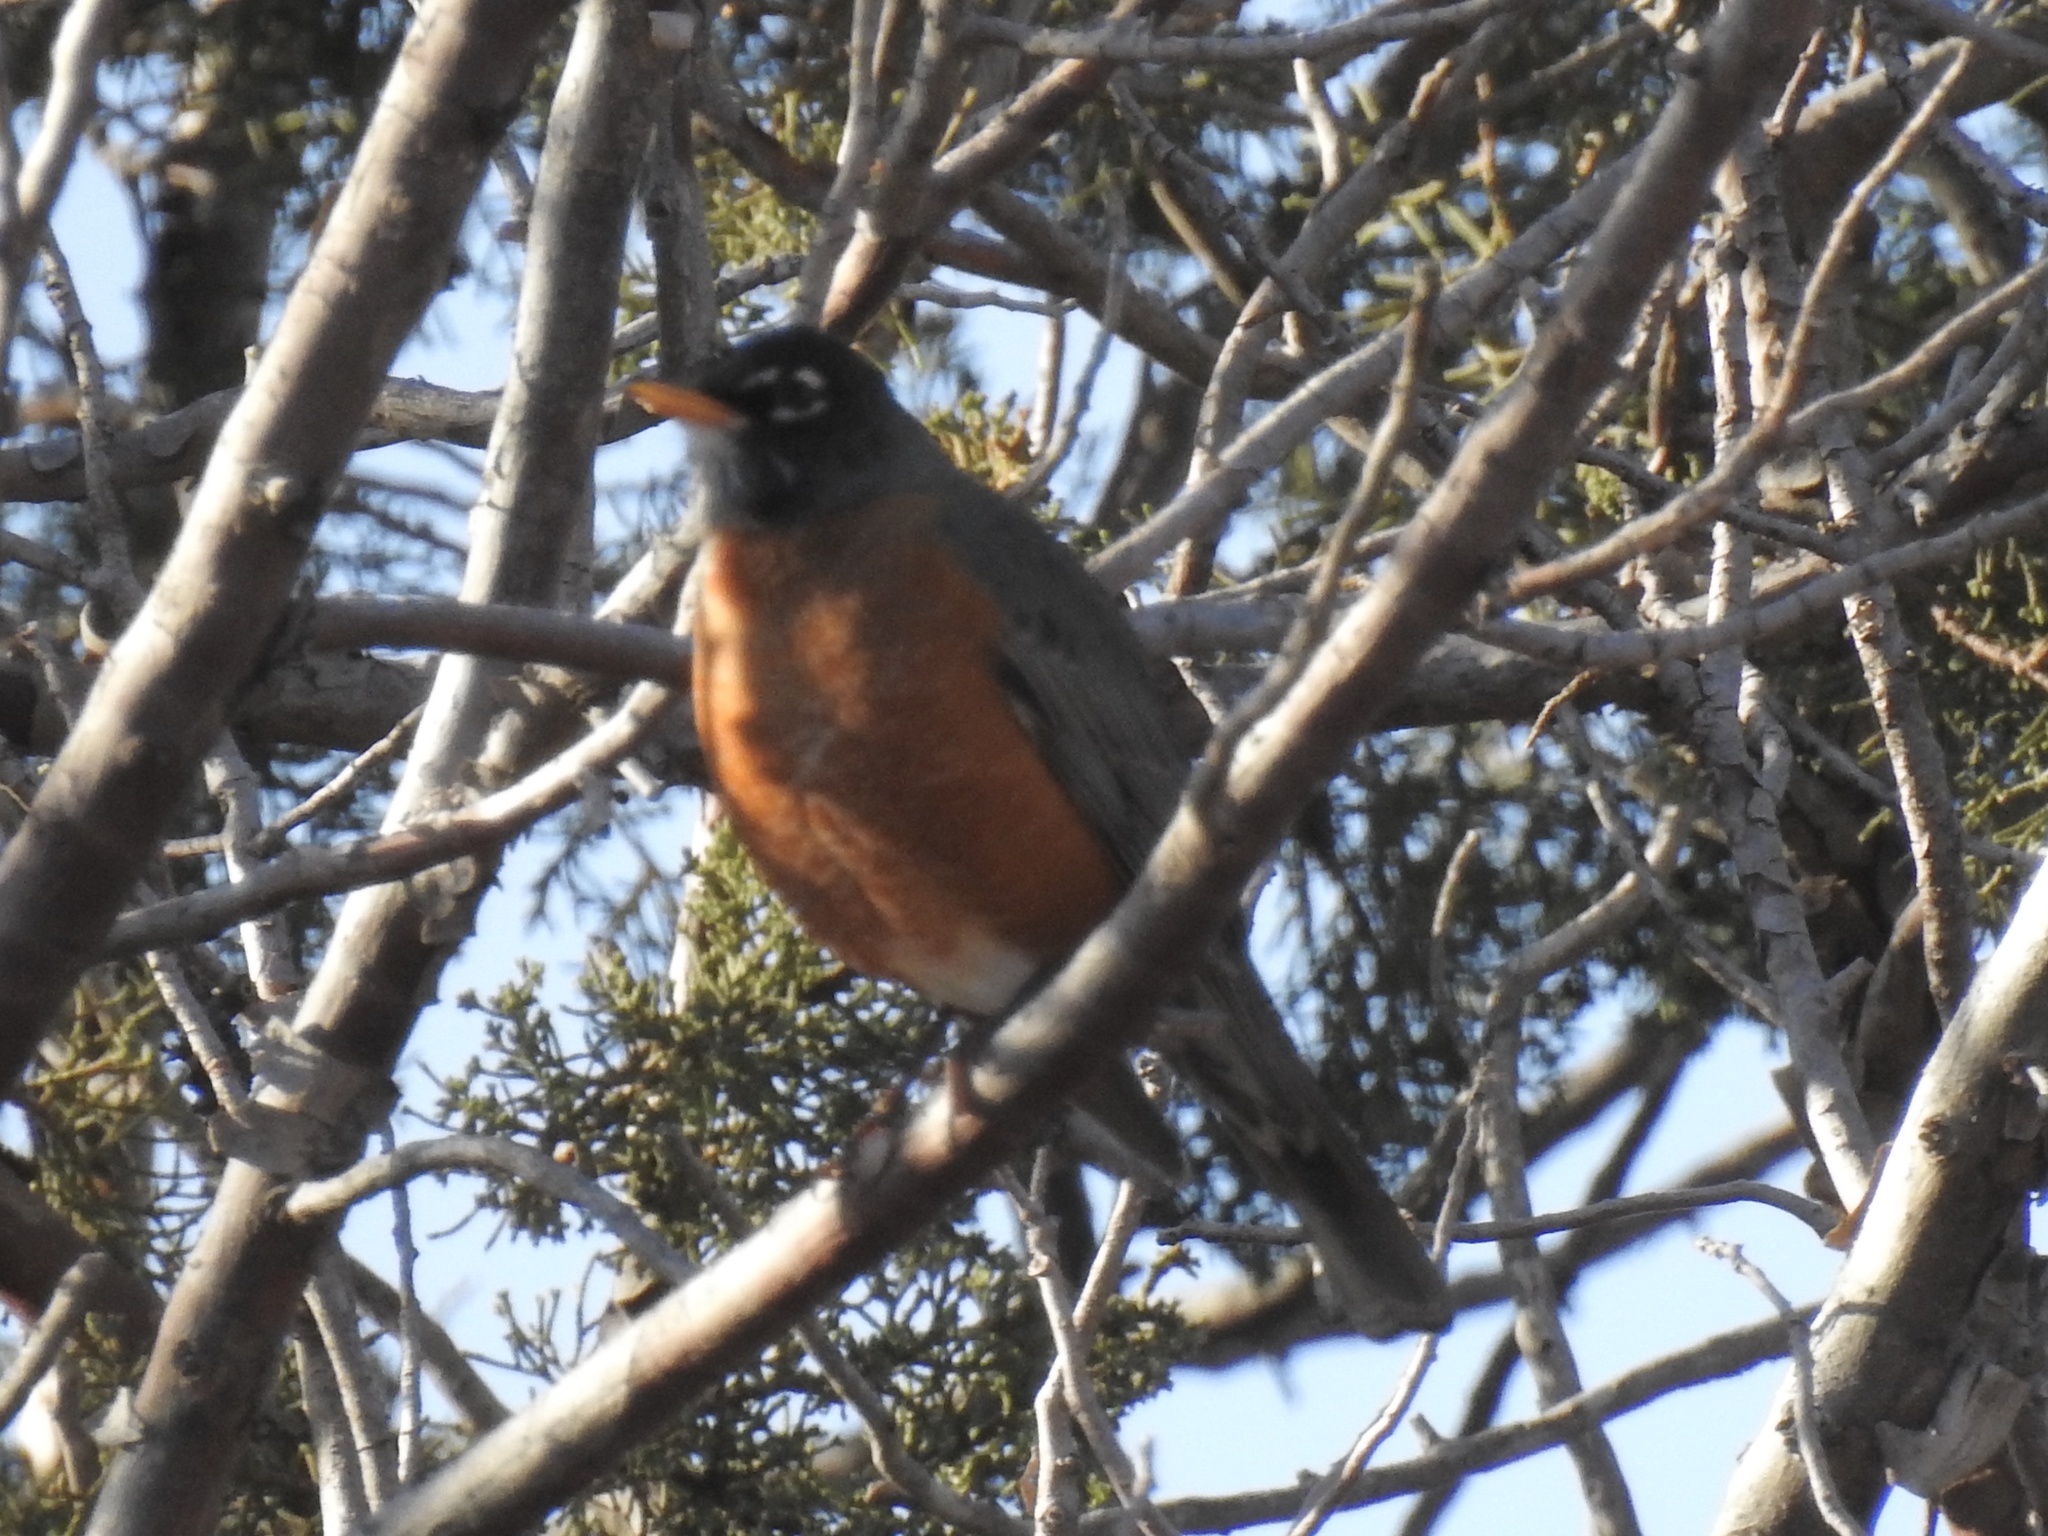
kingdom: Animalia
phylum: Chordata
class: Aves
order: Passeriformes
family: Turdidae
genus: Turdus
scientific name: Turdus migratorius
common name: American robin
